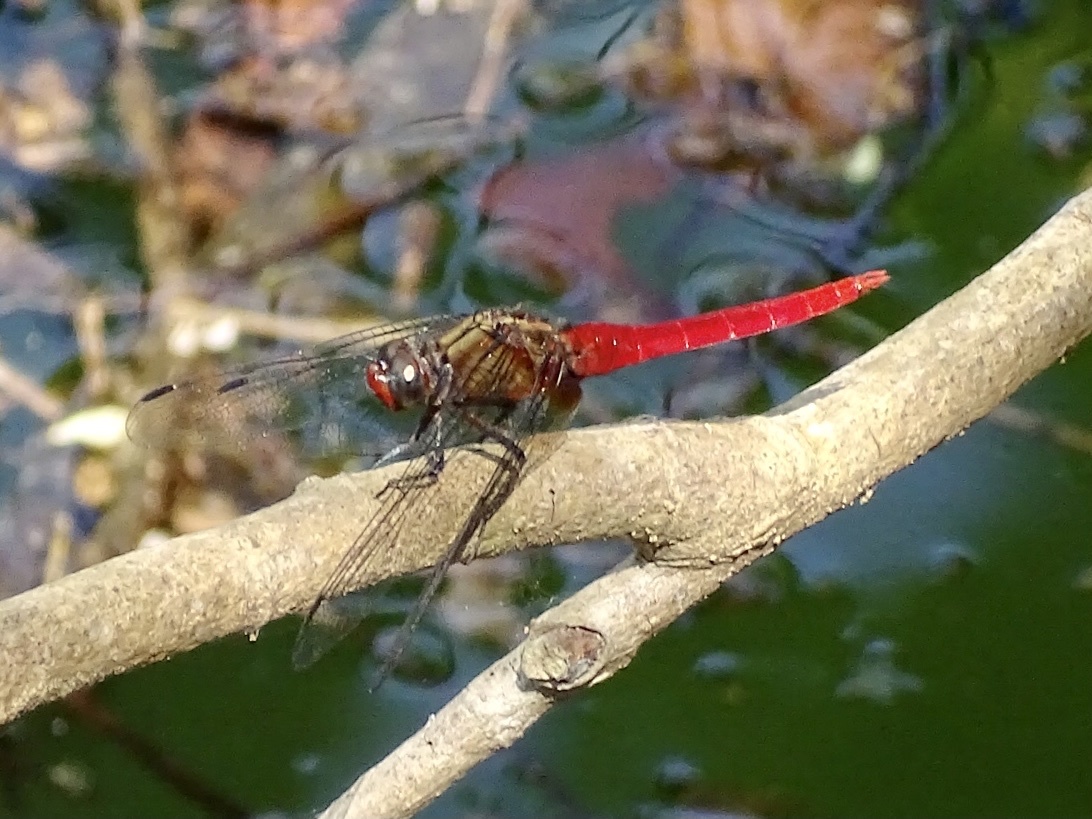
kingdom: Animalia
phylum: Arthropoda
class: Insecta
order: Odonata
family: Libellulidae
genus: Orthetrum
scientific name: Orthetrum chrysis
